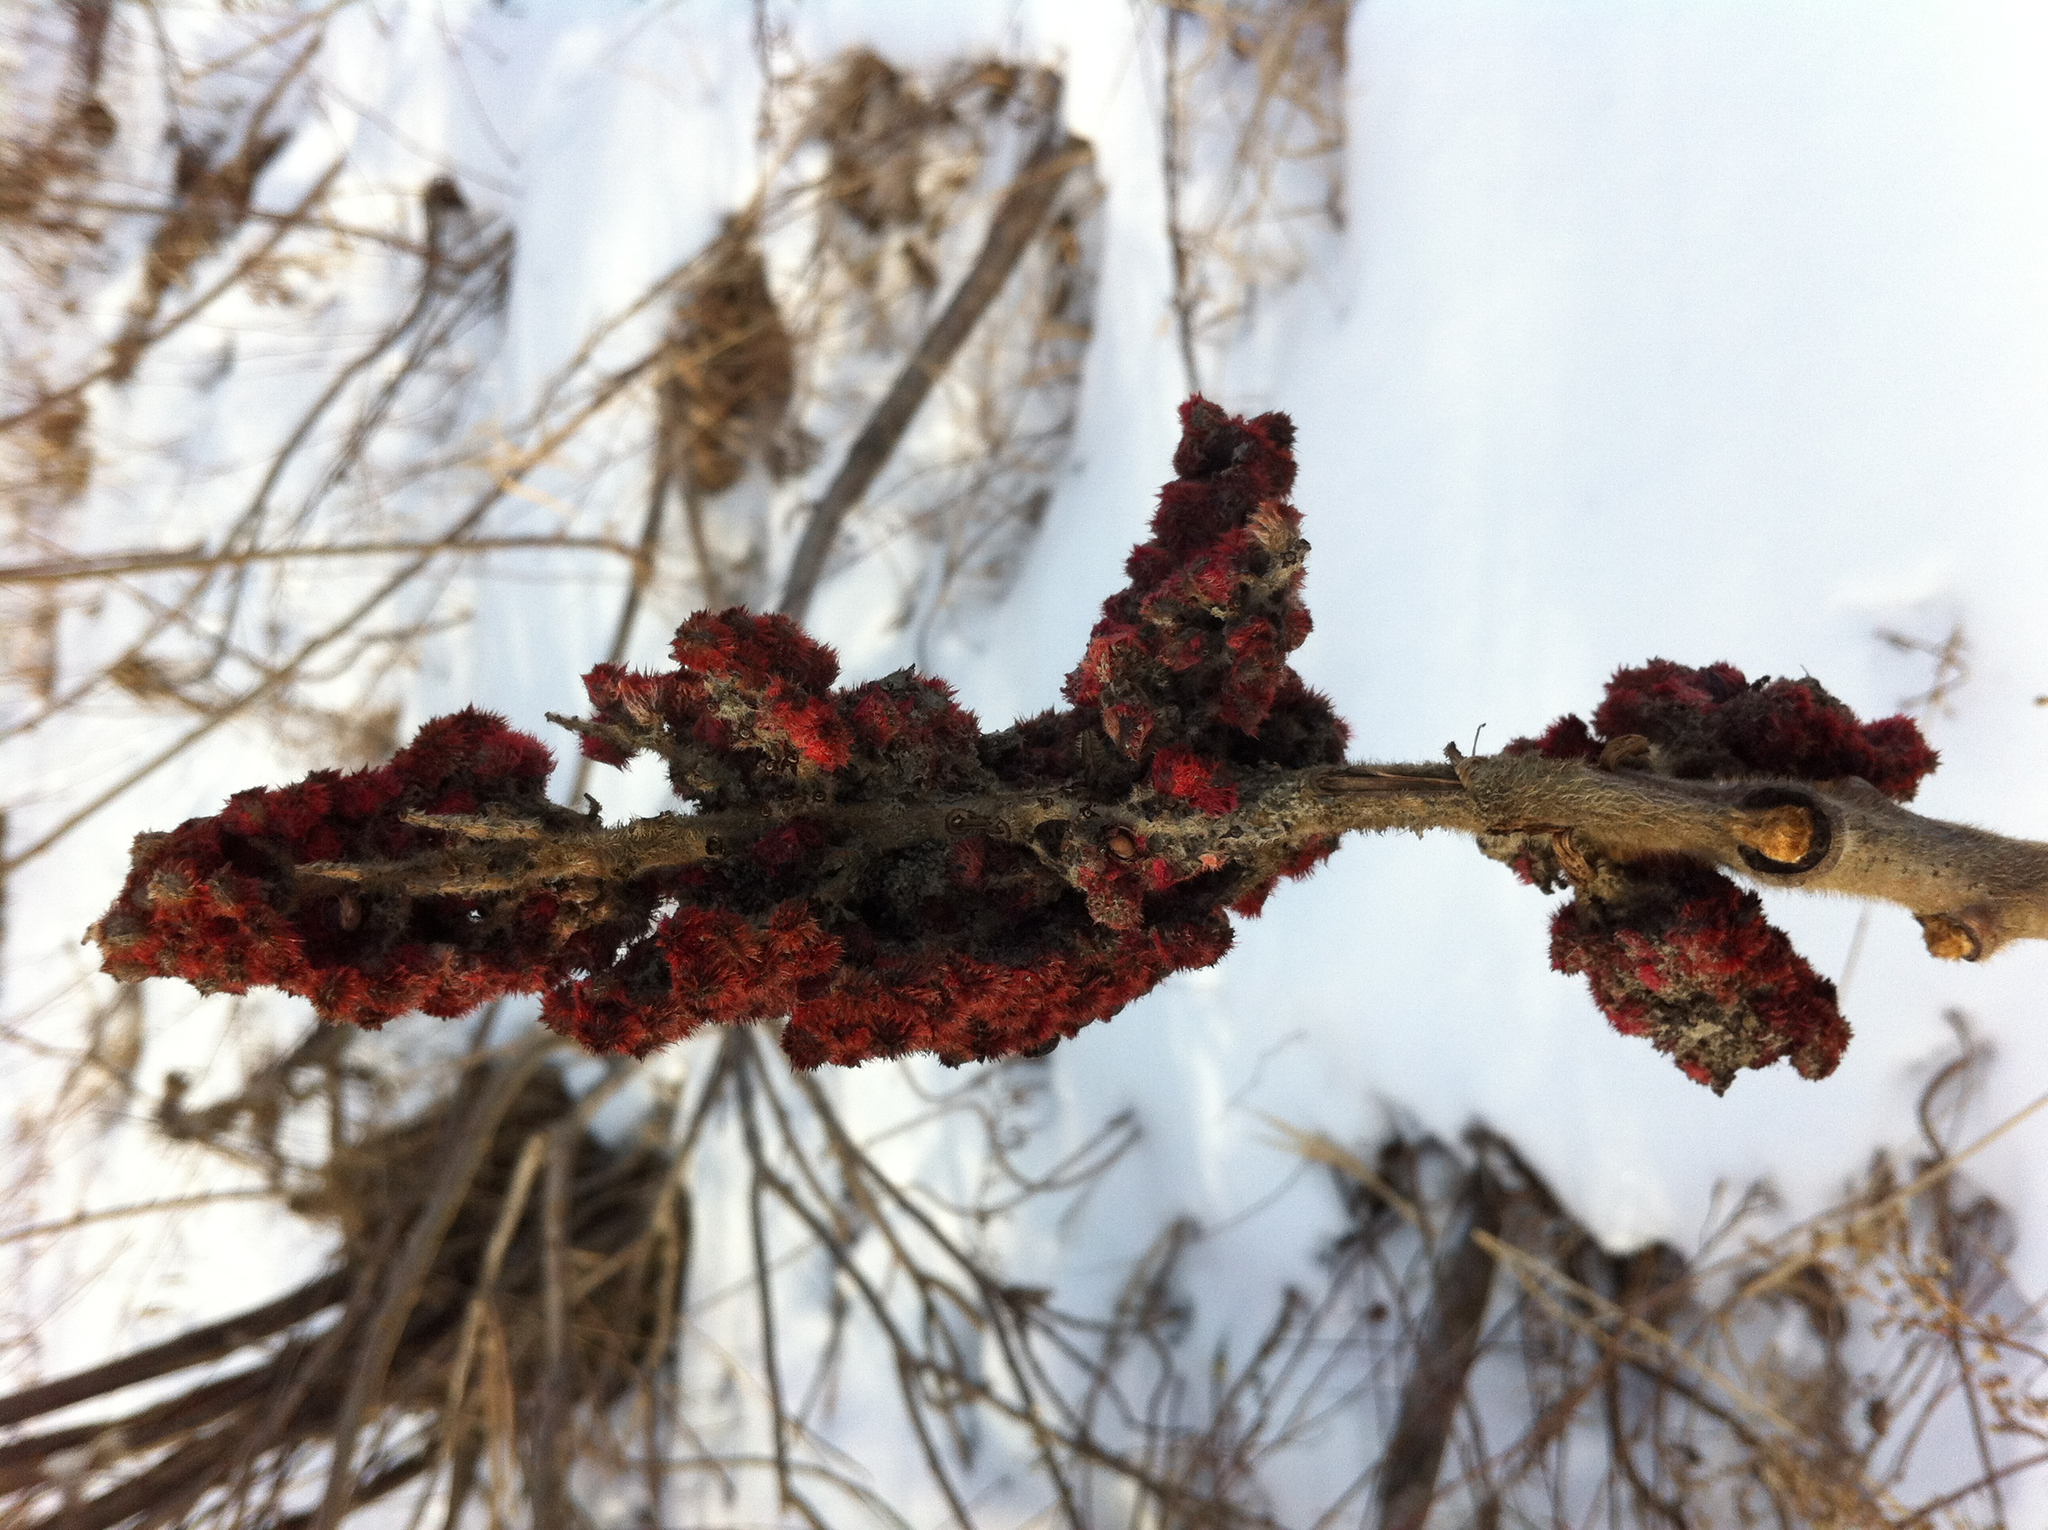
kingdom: Plantae
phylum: Tracheophyta
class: Magnoliopsida
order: Sapindales
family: Anacardiaceae
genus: Rhus
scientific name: Rhus typhina
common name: Staghorn sumac
